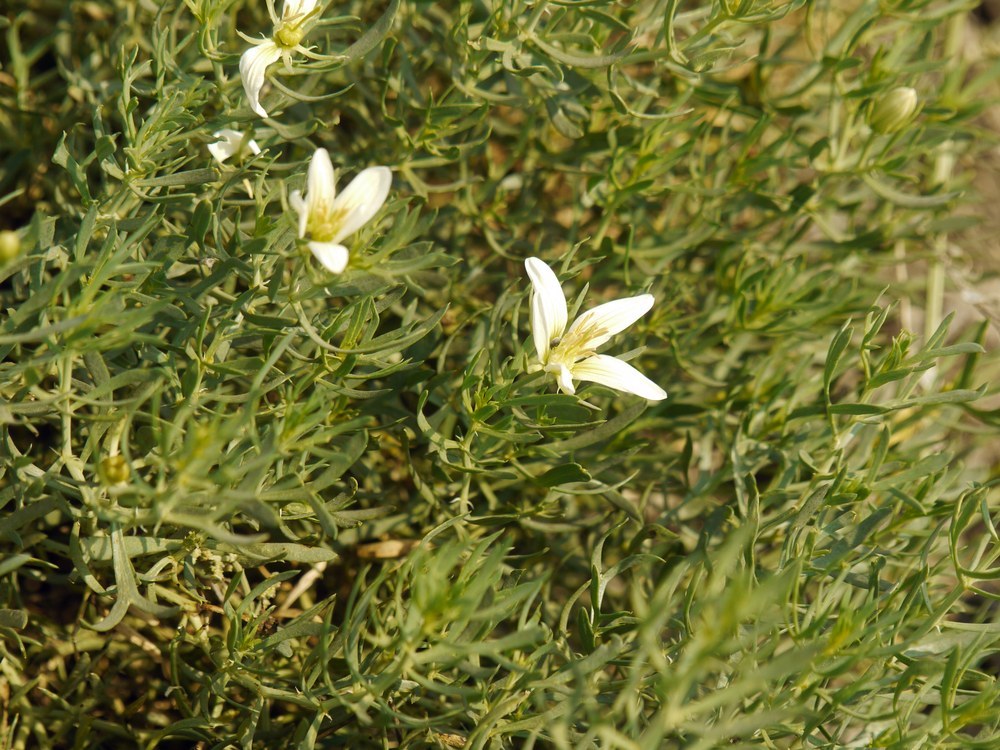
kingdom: Plantae
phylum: Tracheophyta
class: Magnoliopsida
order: Sapindales
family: Tetradiclidaceae
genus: Peganum
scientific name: Peganum harmala
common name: Harmal peganum
